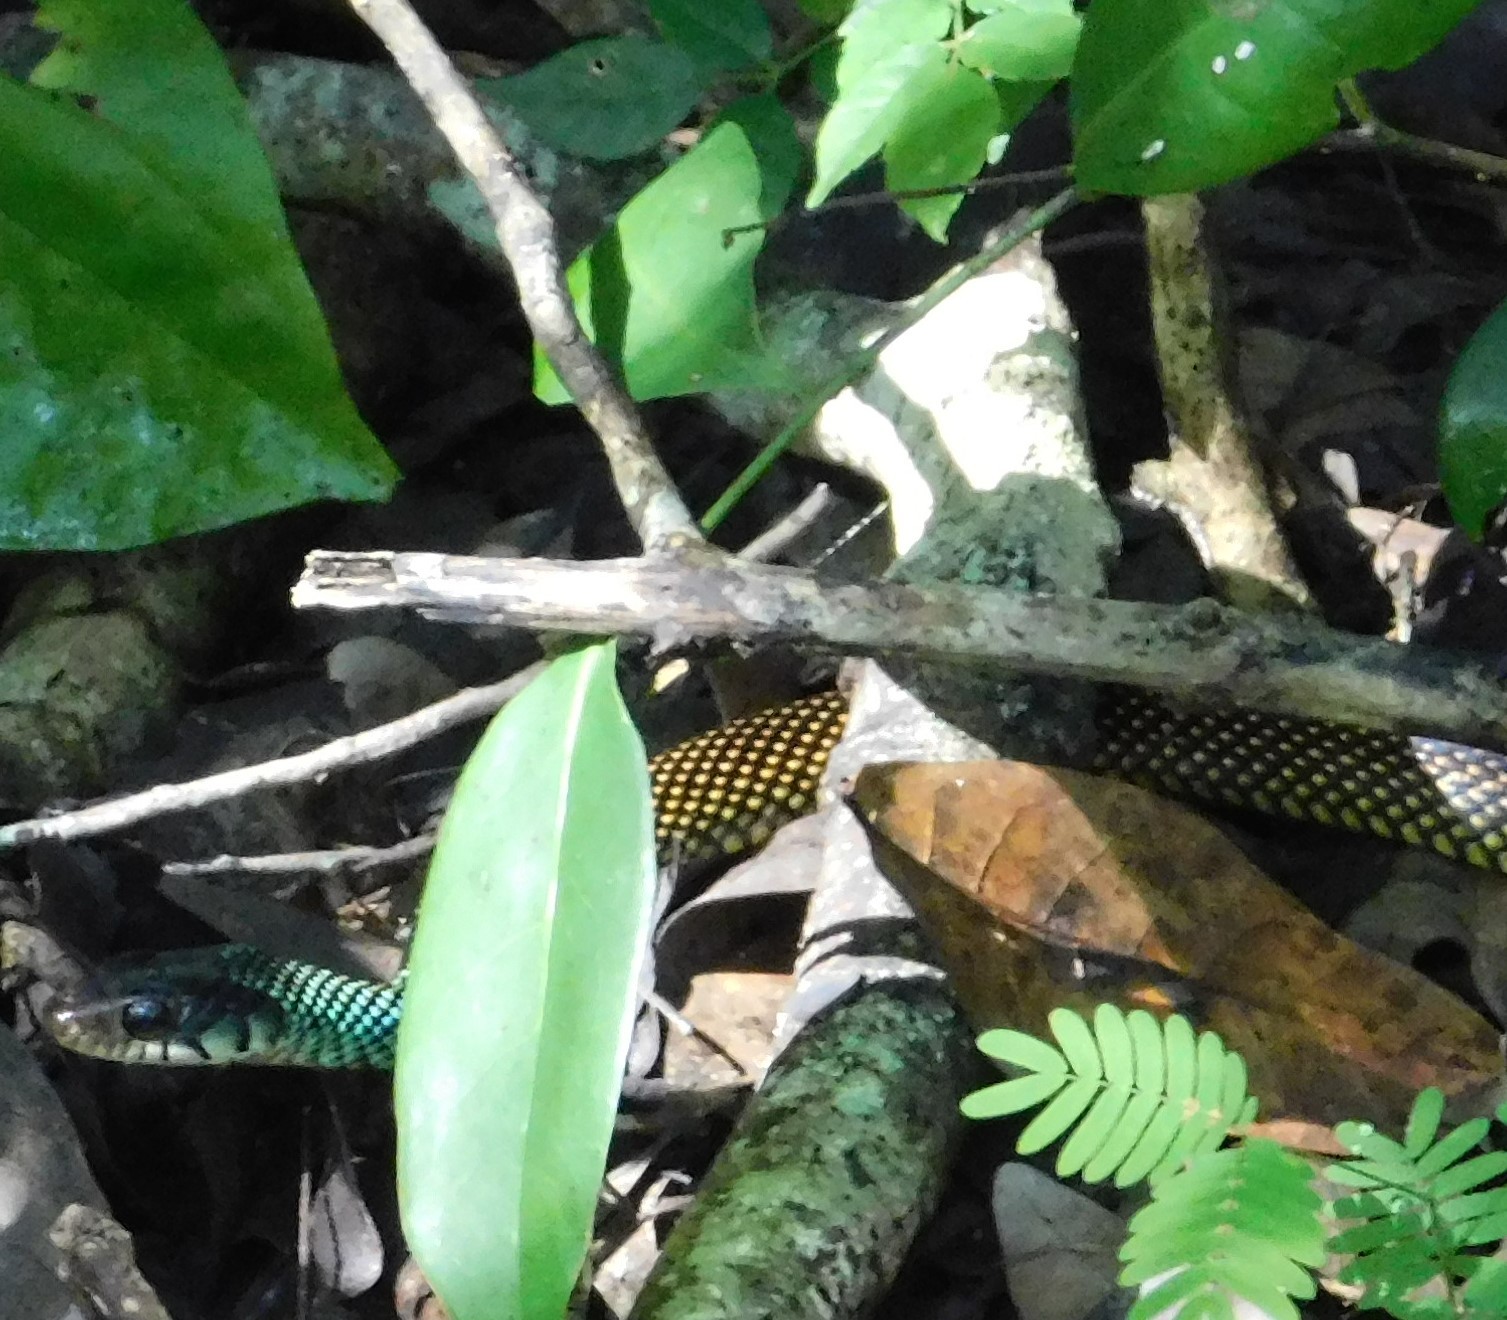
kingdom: Animalia
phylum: Chordata
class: Squamata
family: Colubridae
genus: Drymobius
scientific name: Drymobius margaritiferus
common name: Central american speckled racer
